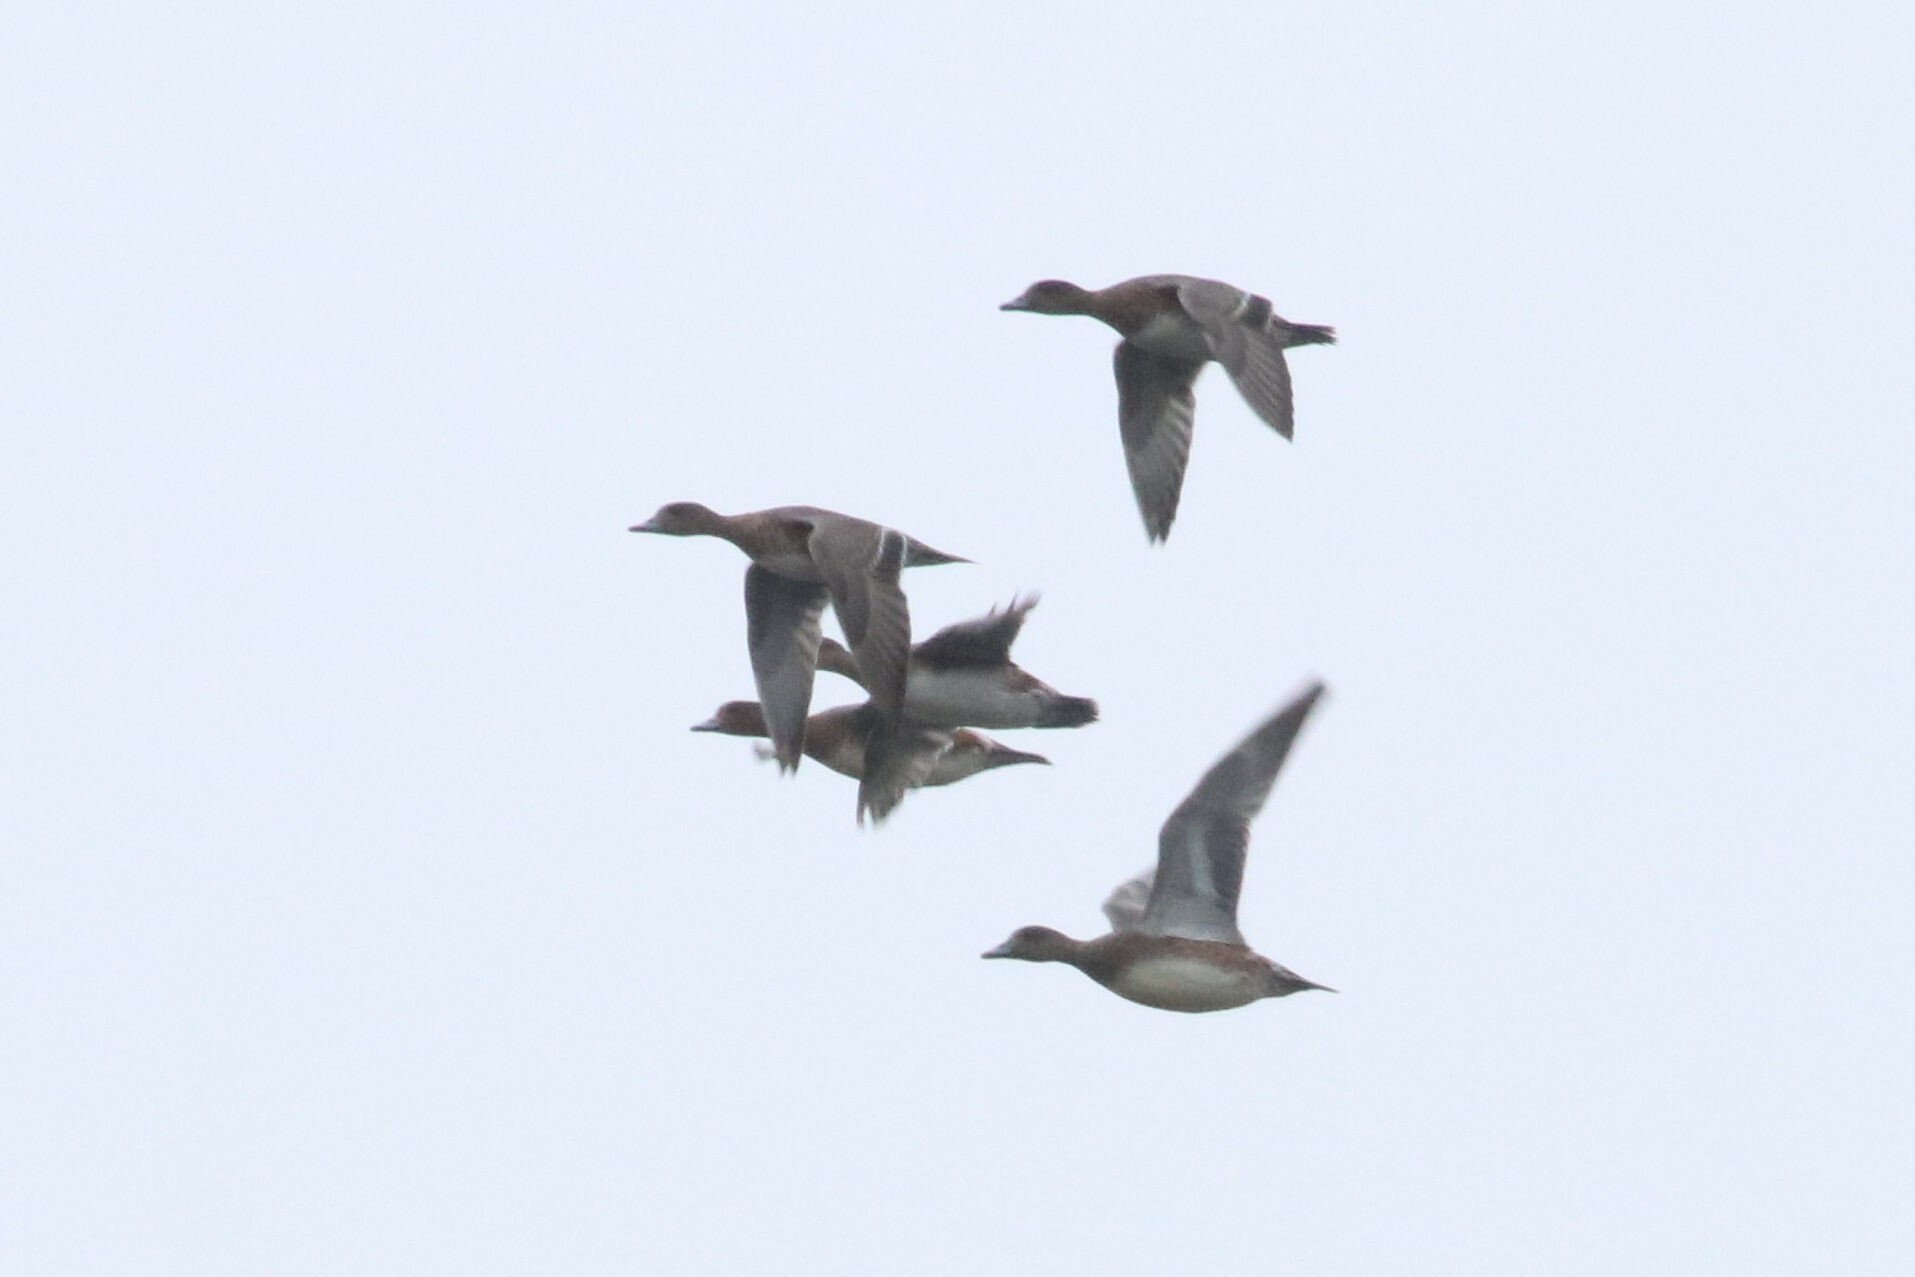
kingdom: Animalia
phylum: Chordata
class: Aves
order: Anseriformes
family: Anatidae
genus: Mareca
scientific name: Mareca penelope
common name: Eurasian wigeon
